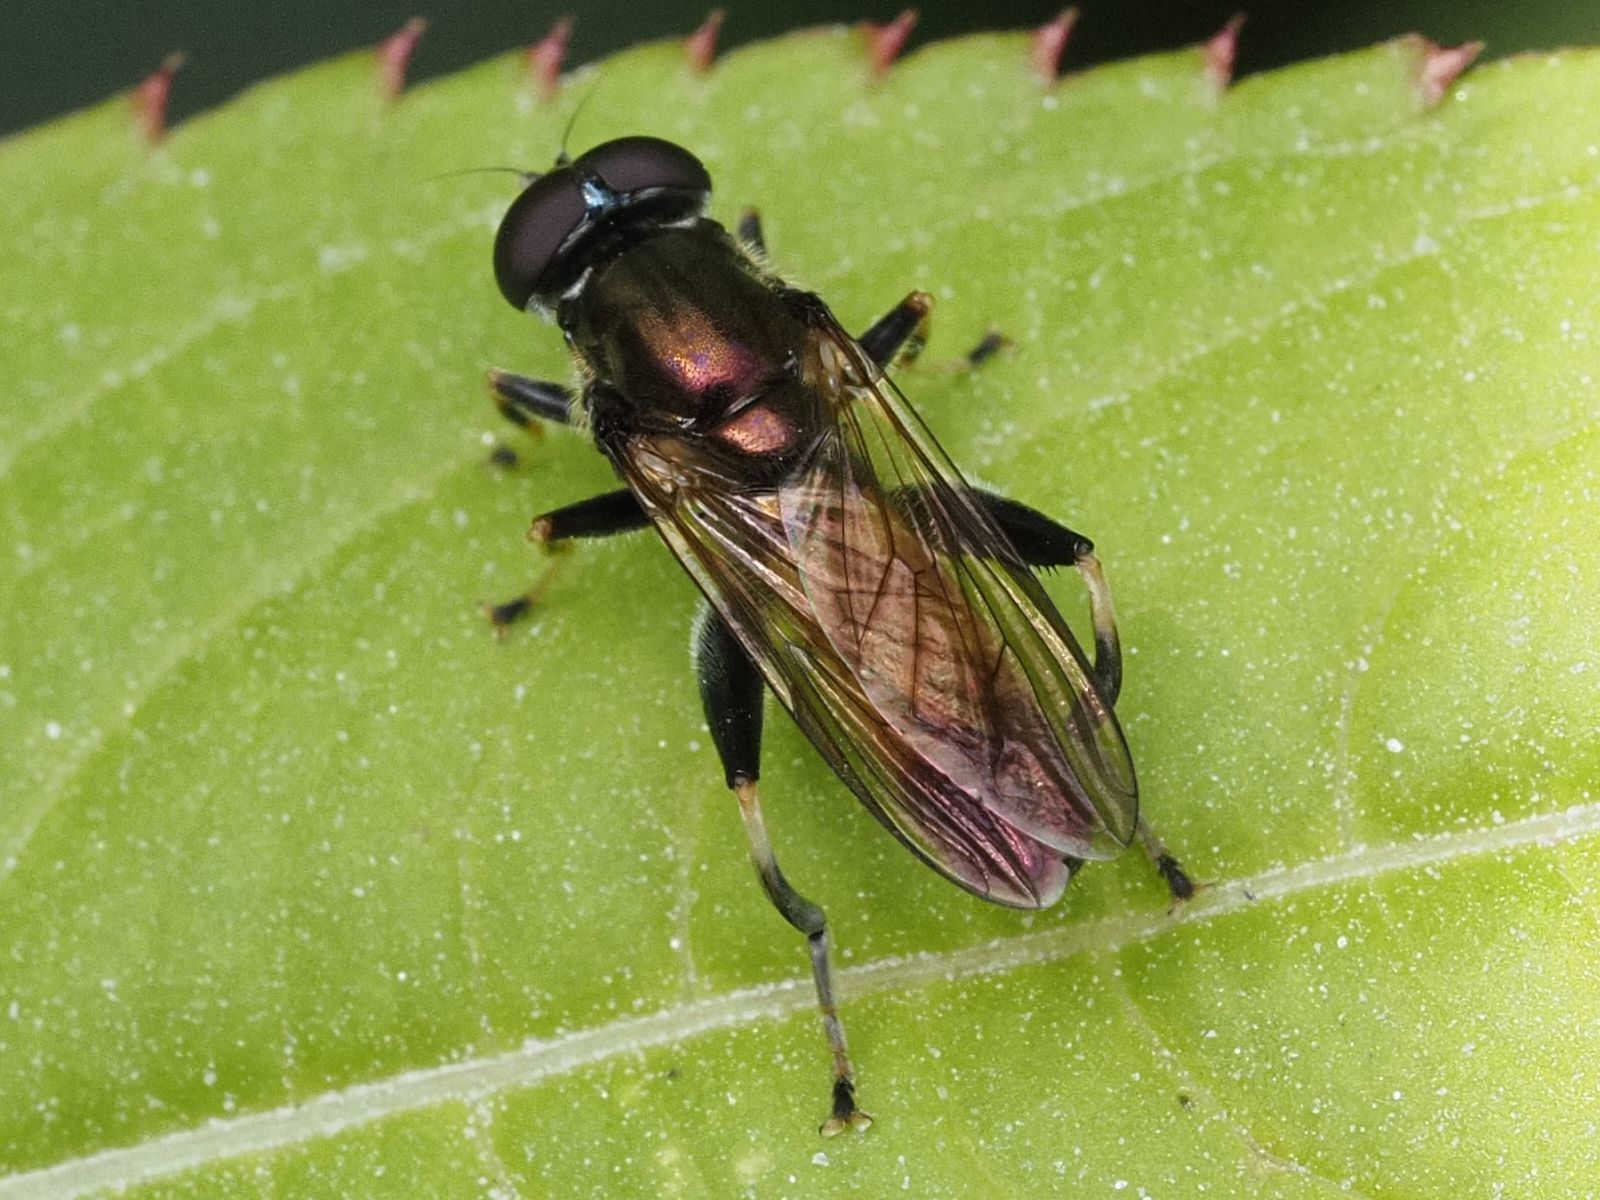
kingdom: Animalia
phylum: Arthropoda
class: Insecta
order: Diptera
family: Syrphidae
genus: Xylota
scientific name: Xylota segnis
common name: Brown-toed forest fly
